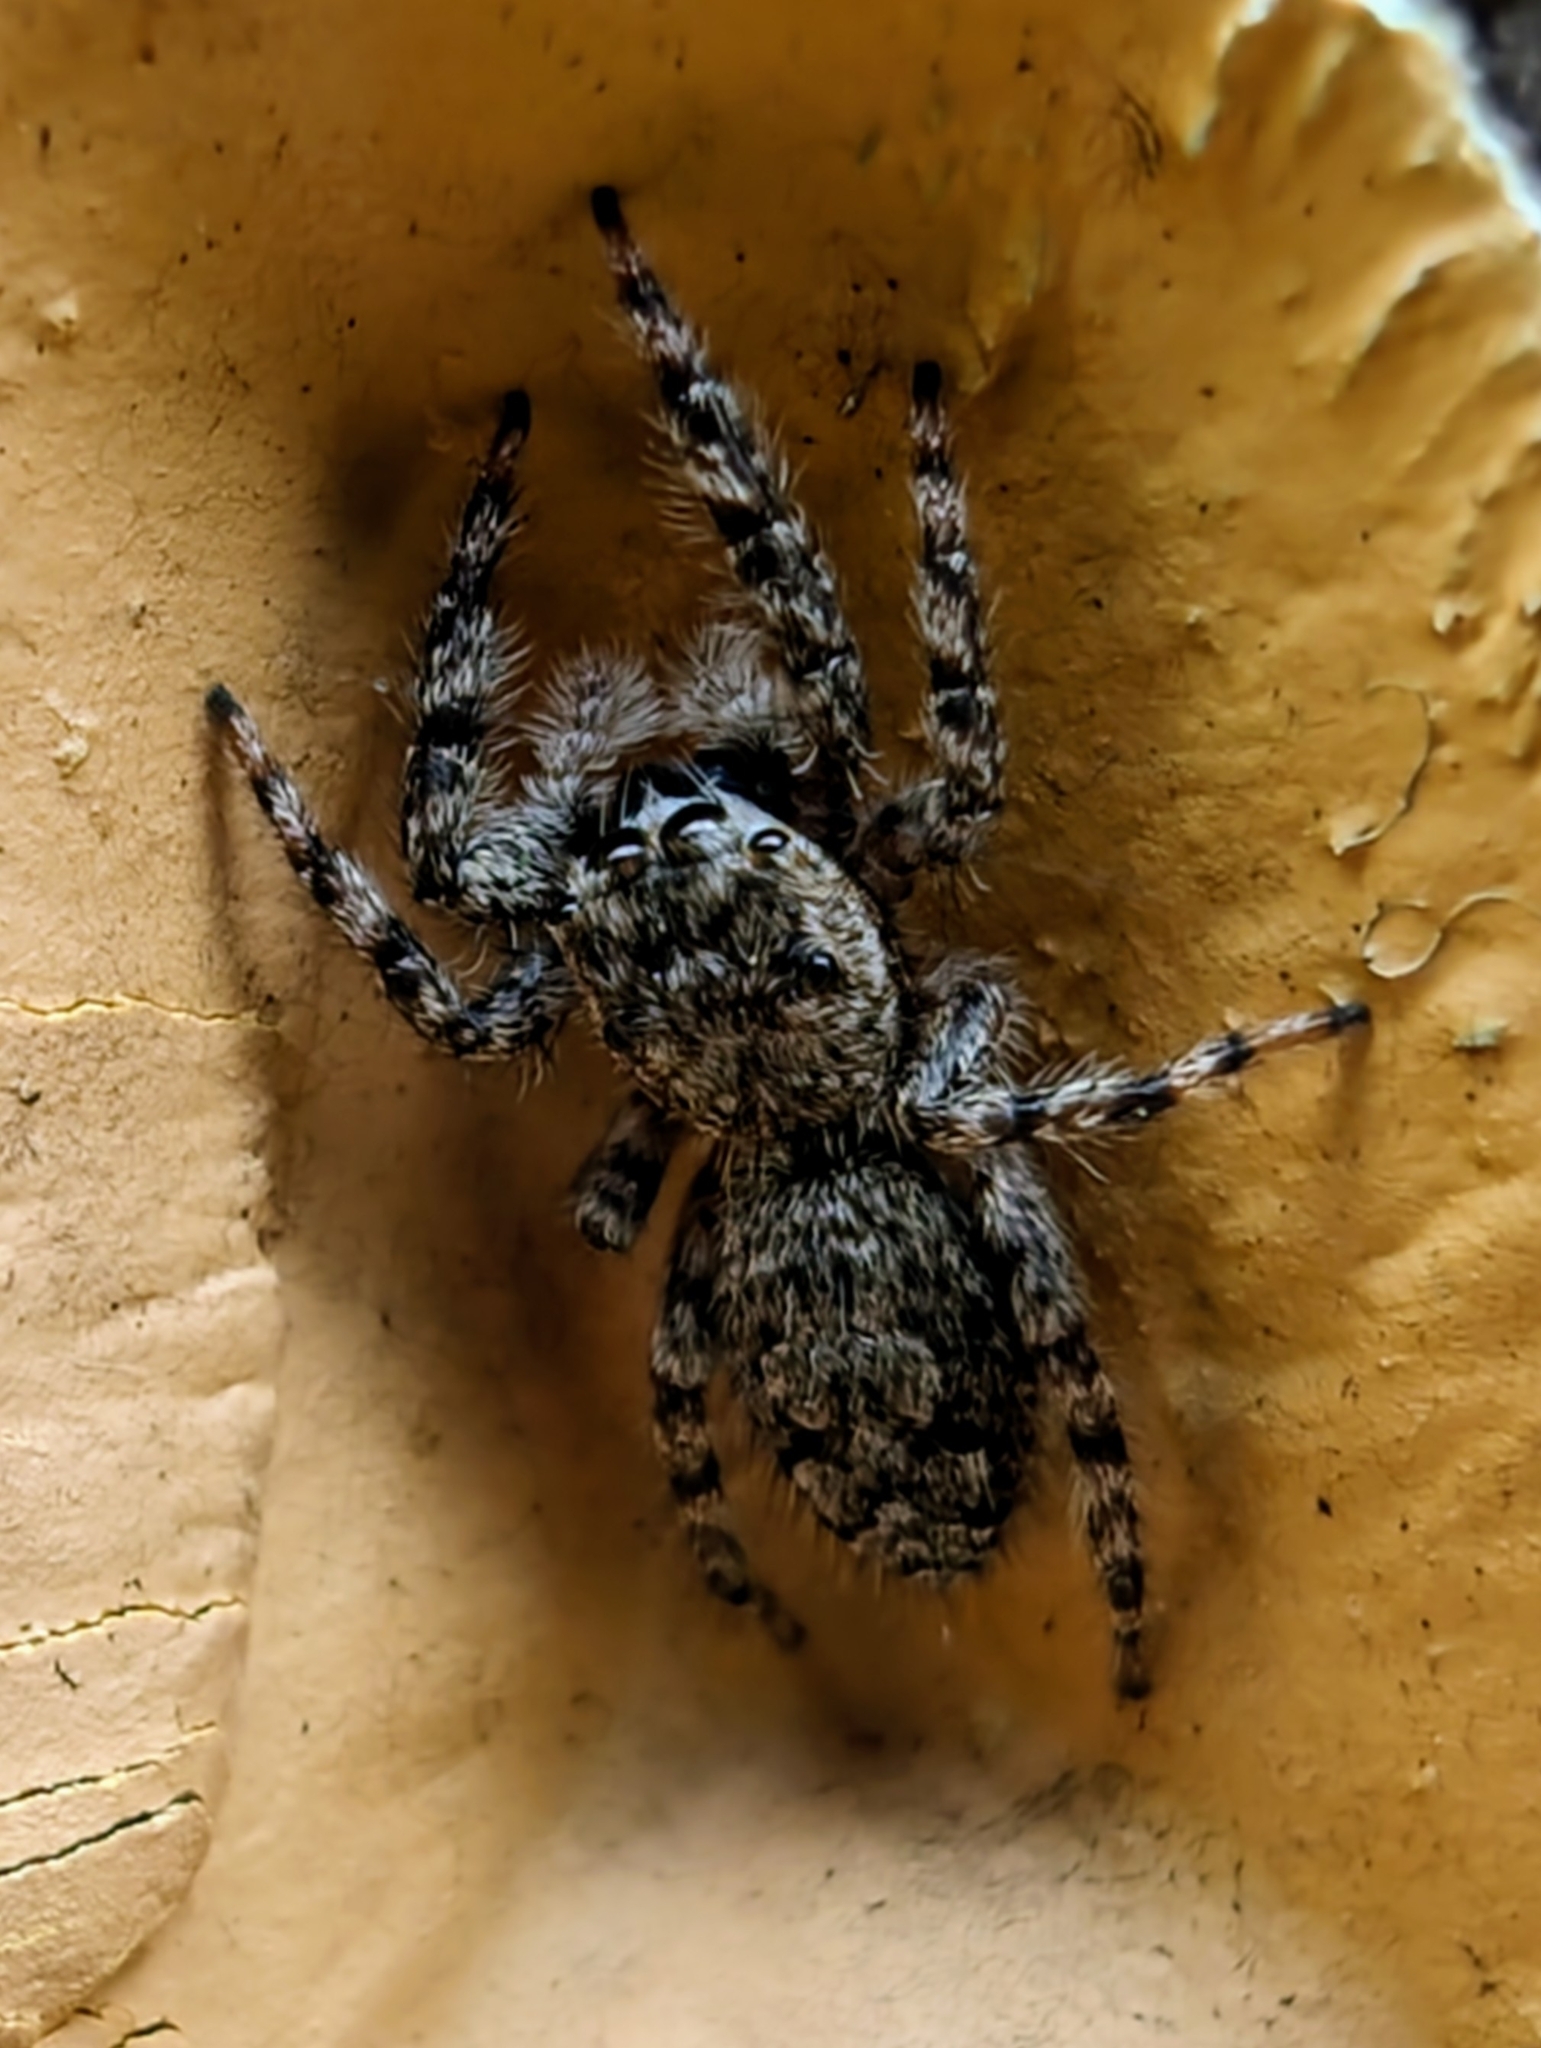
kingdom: Animalia
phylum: Arthropoda
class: Arachnida
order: Araneae
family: Salticidae
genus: Platycryptus
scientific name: Platycryptus undatus
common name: Tan jumping spider
